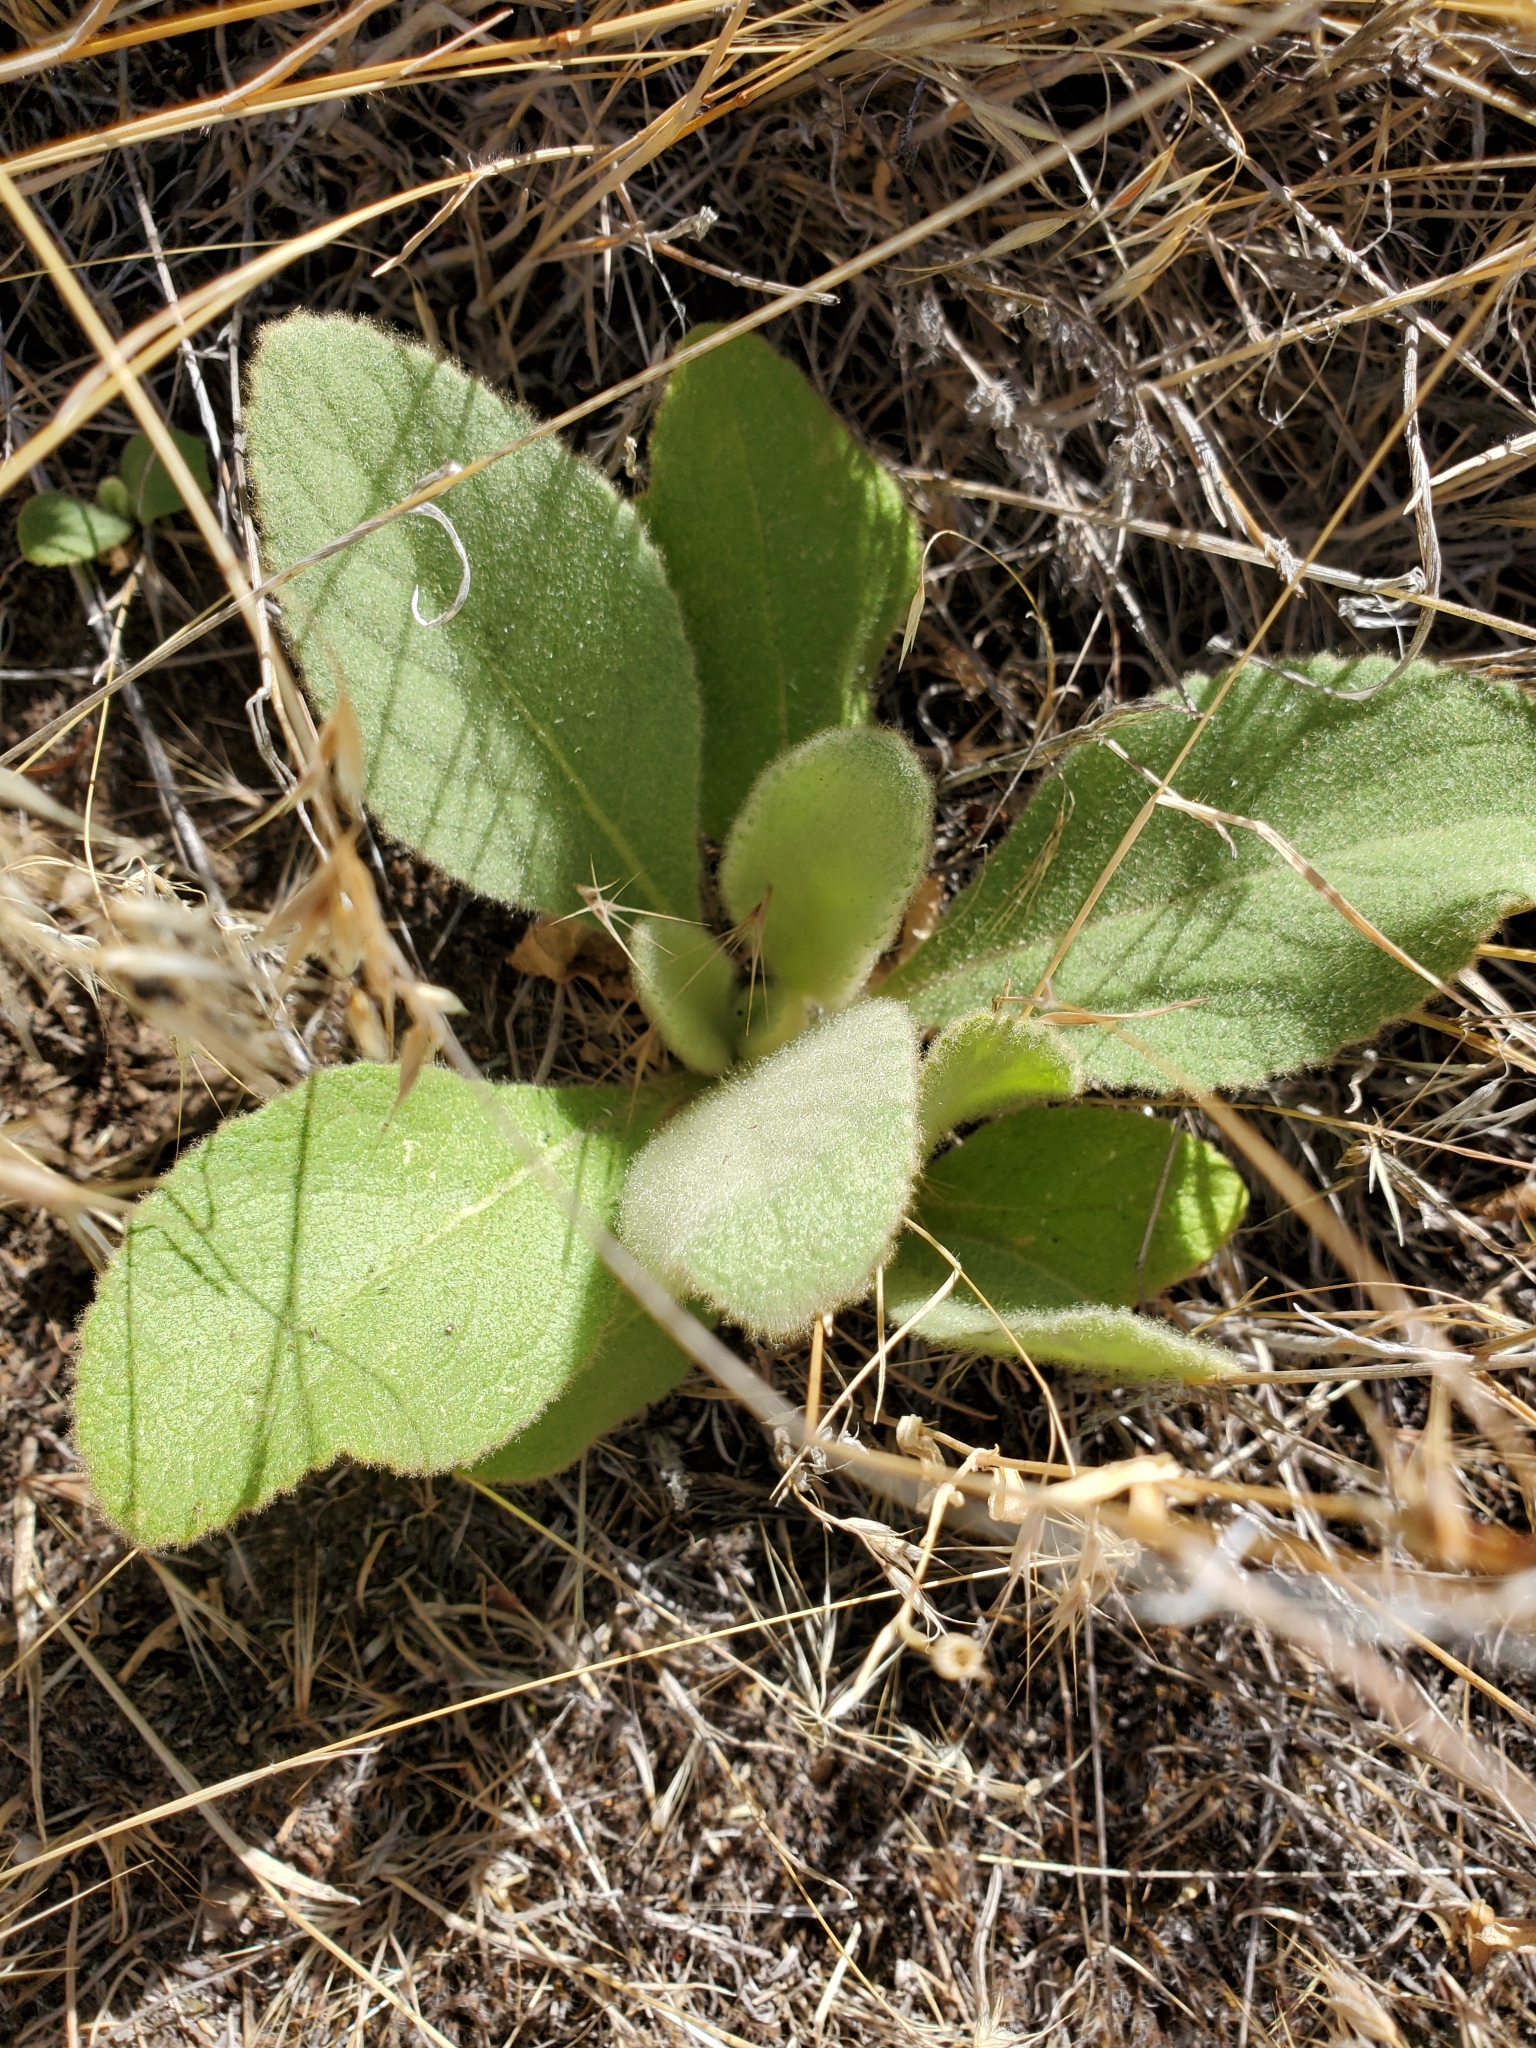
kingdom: Plantae
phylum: Tracheophyta
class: Magnoliopsida
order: Lamiales
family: Scrophulariaceae
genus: Verbascum
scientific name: Verbascum thapsus
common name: Common mullein
